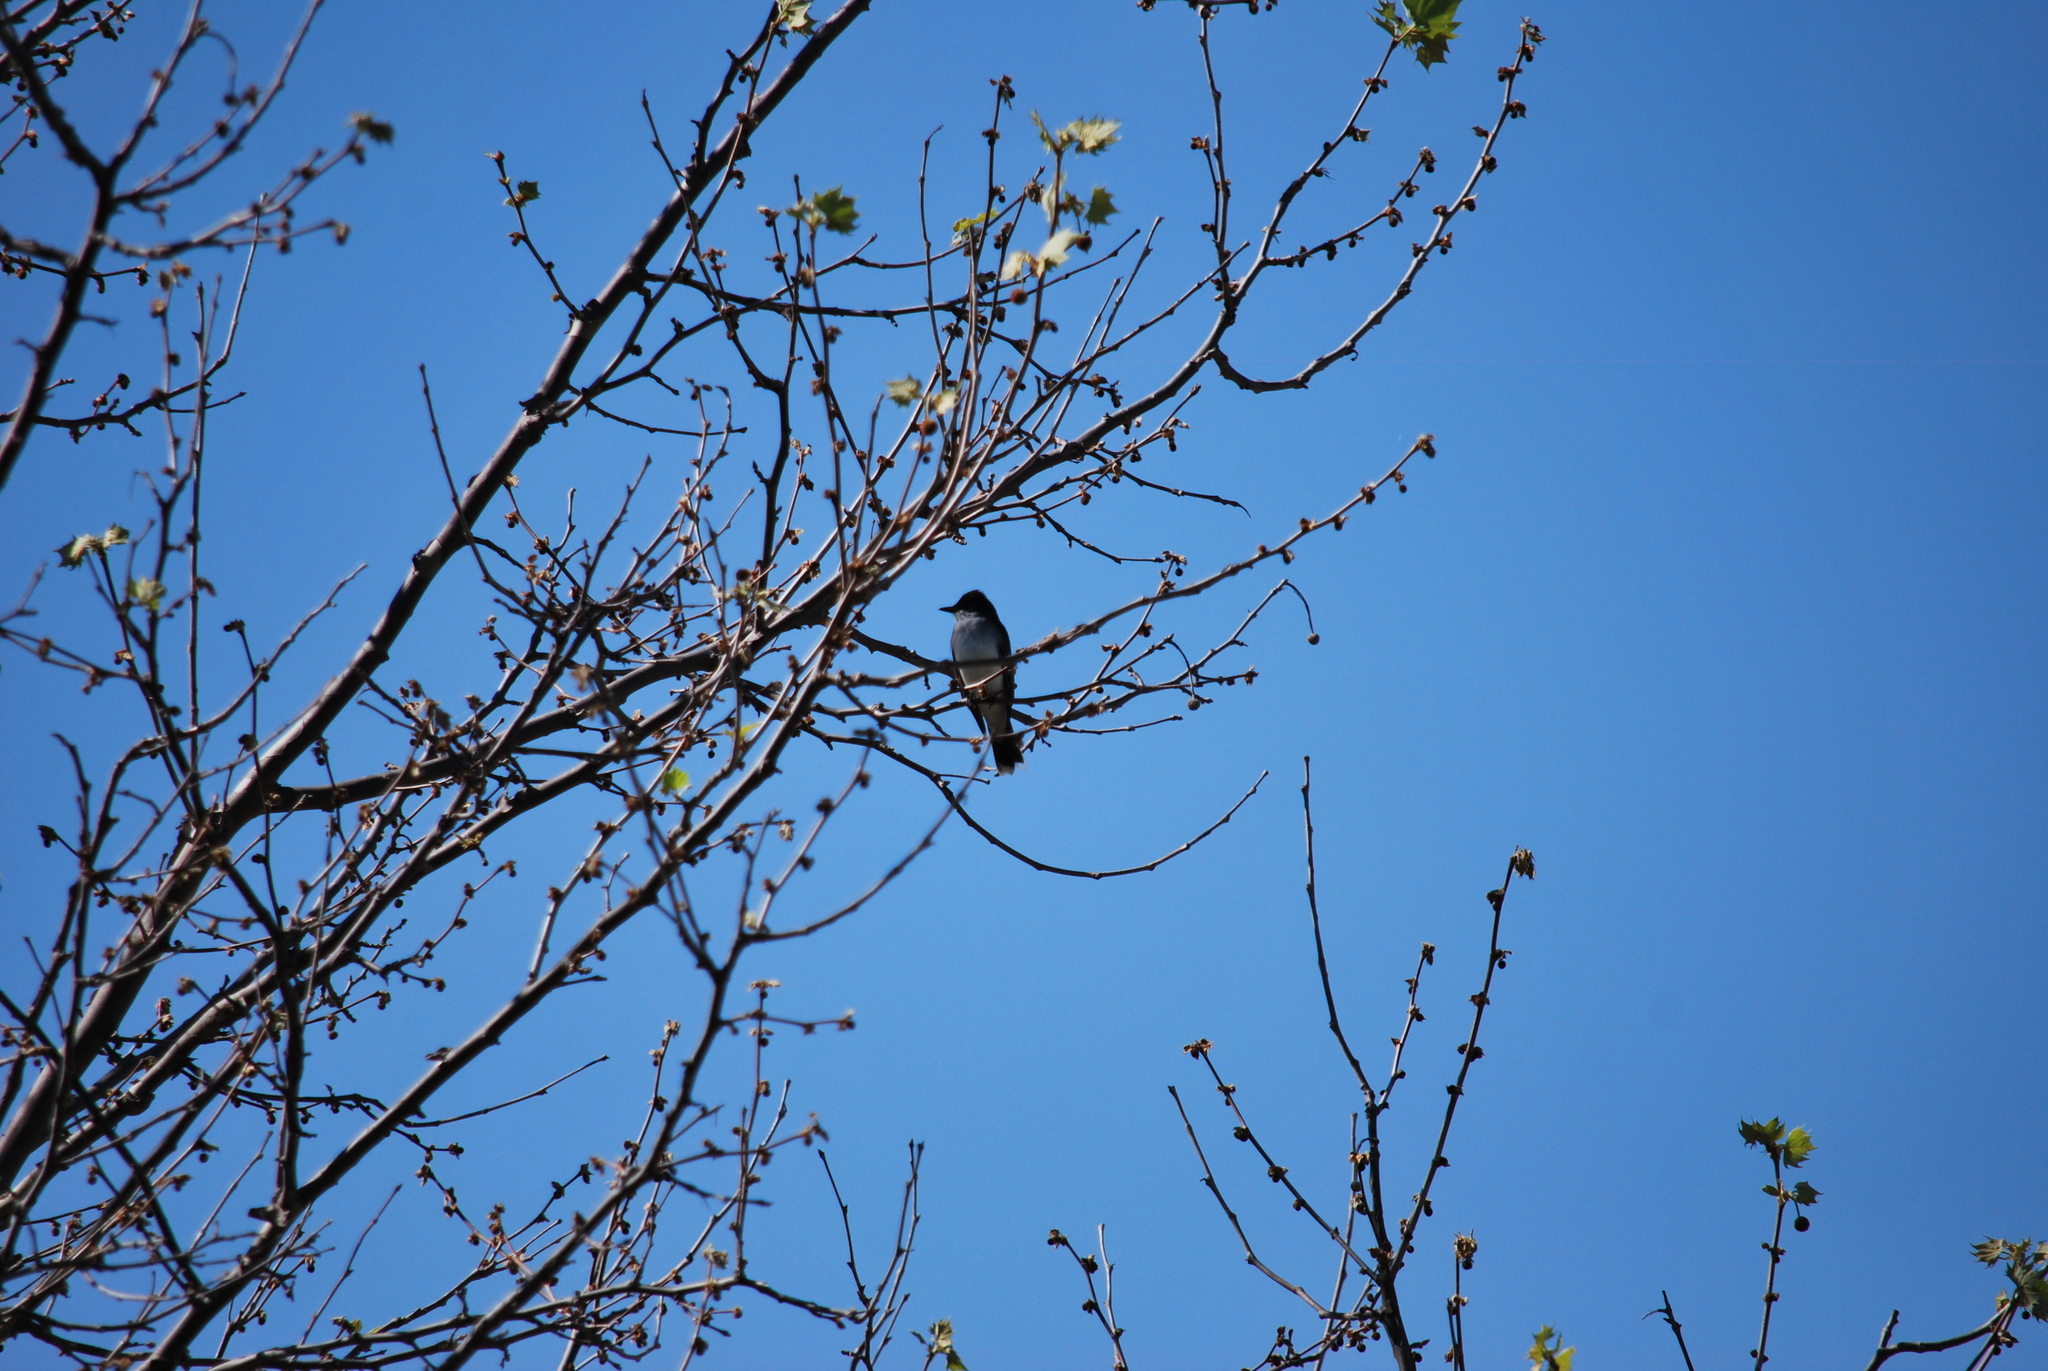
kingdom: Animalia
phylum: Chordata
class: Aves
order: Passeriformes
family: Tyrannidae
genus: Tyrannus
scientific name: Tyrannus tyrannus
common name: Eastern kingbird
